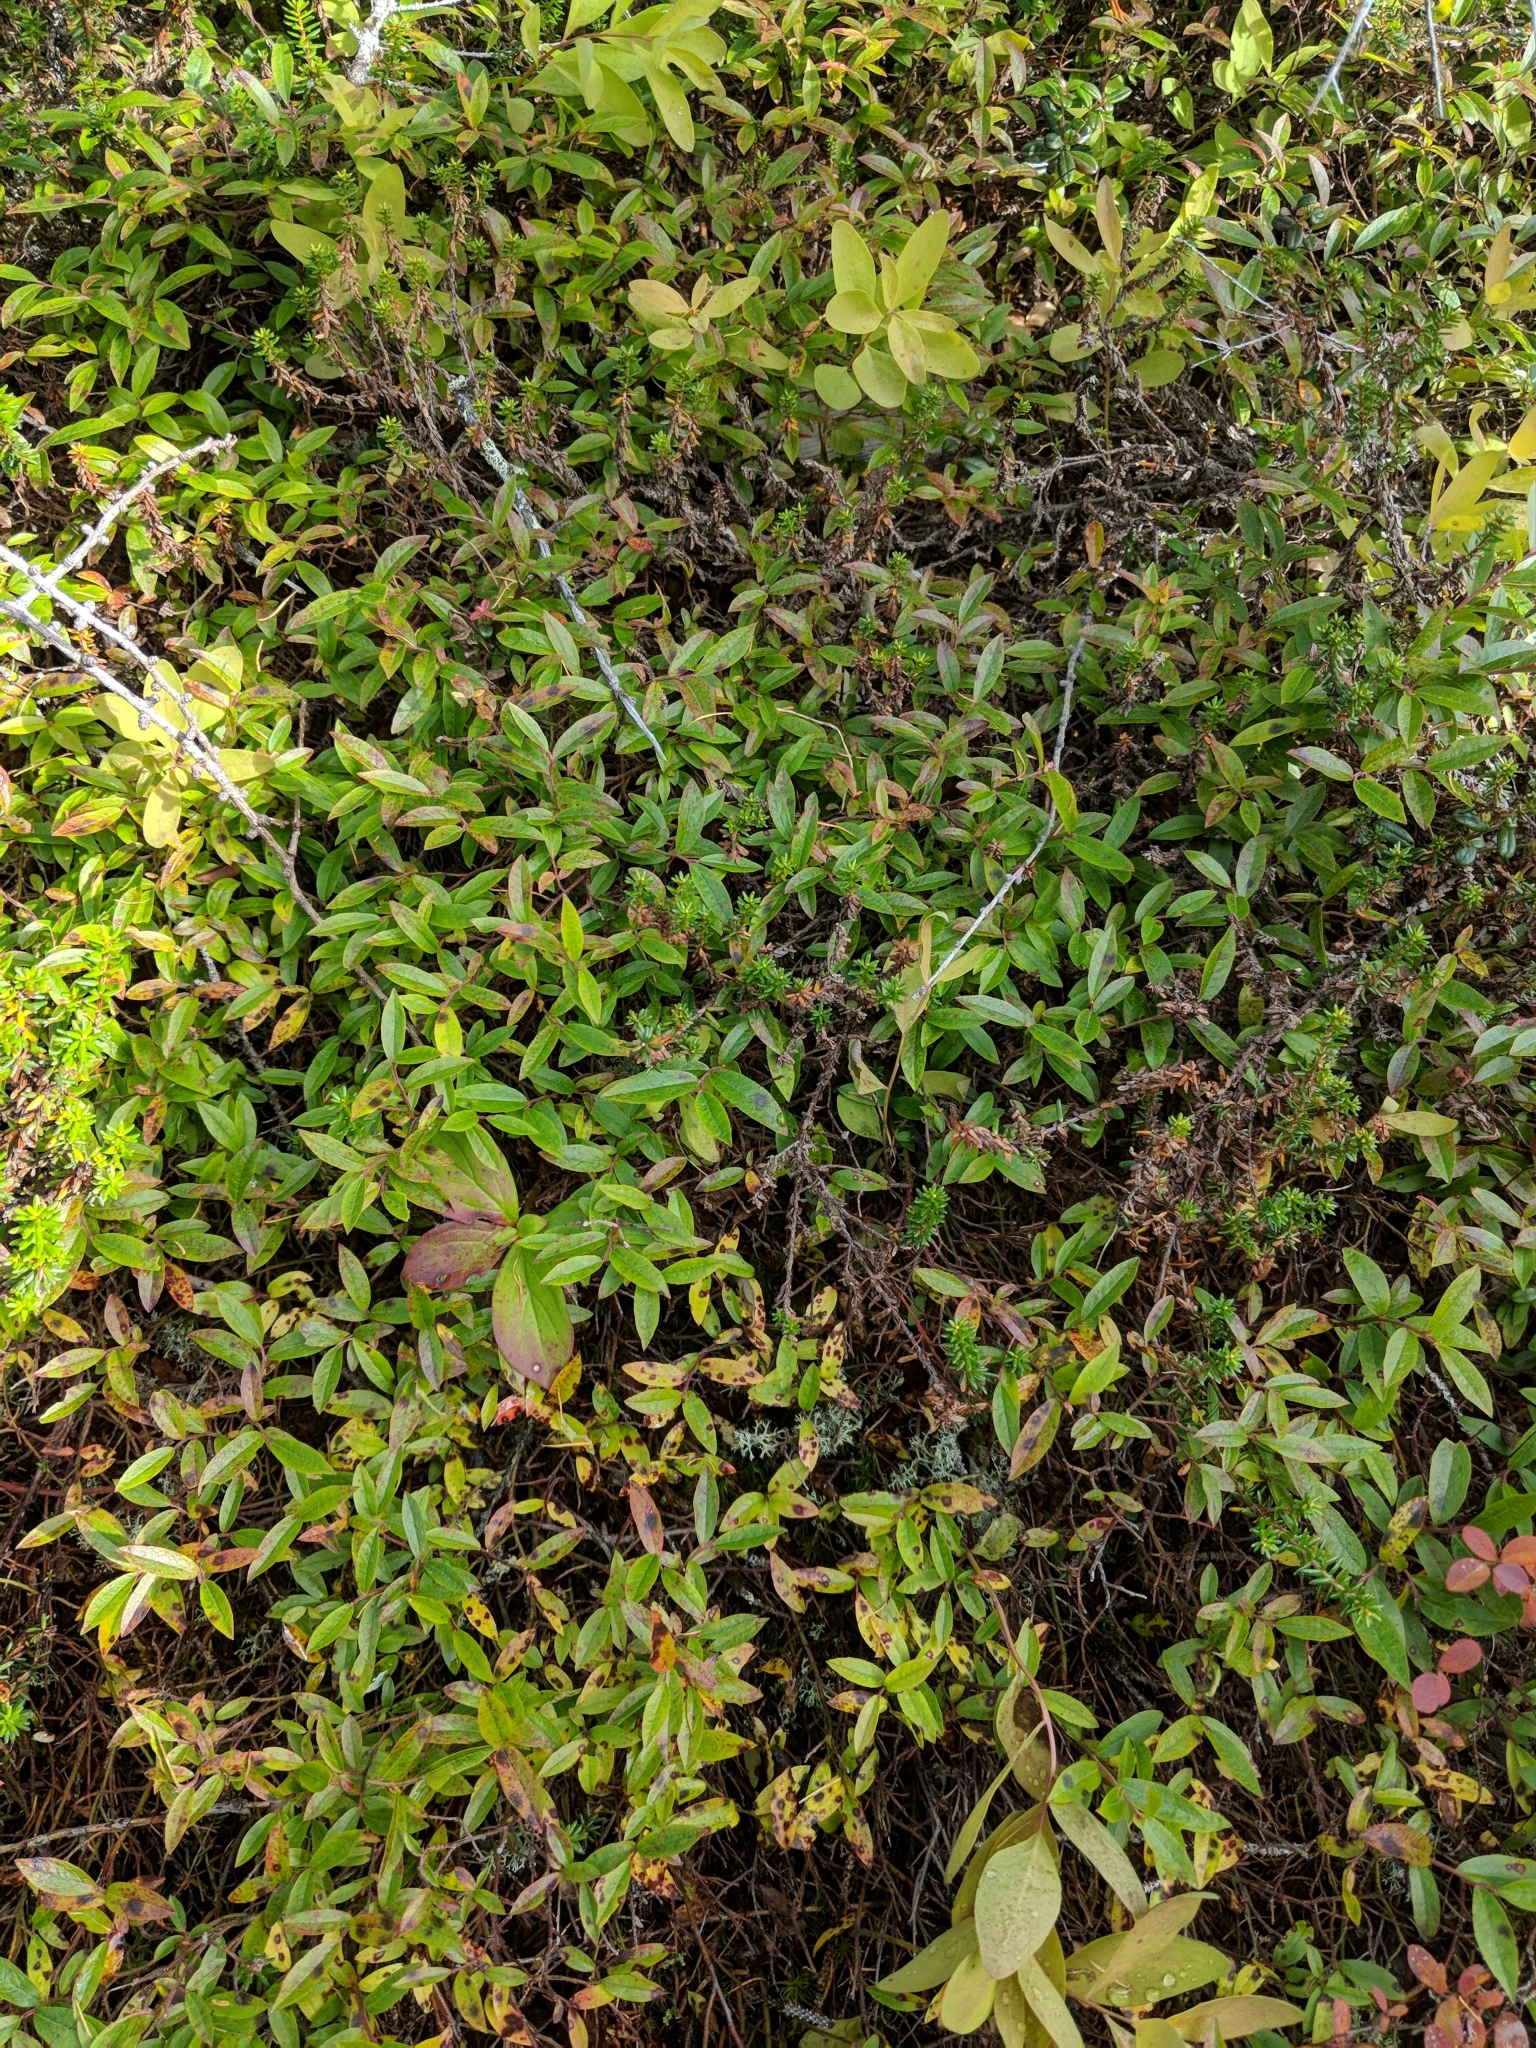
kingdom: Plantae
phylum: Tracheophyta
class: Magnoliopsida
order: Ericales
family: Ericaceae
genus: Vaccinium
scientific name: Vaccinium boreale
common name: Northern blueberry
